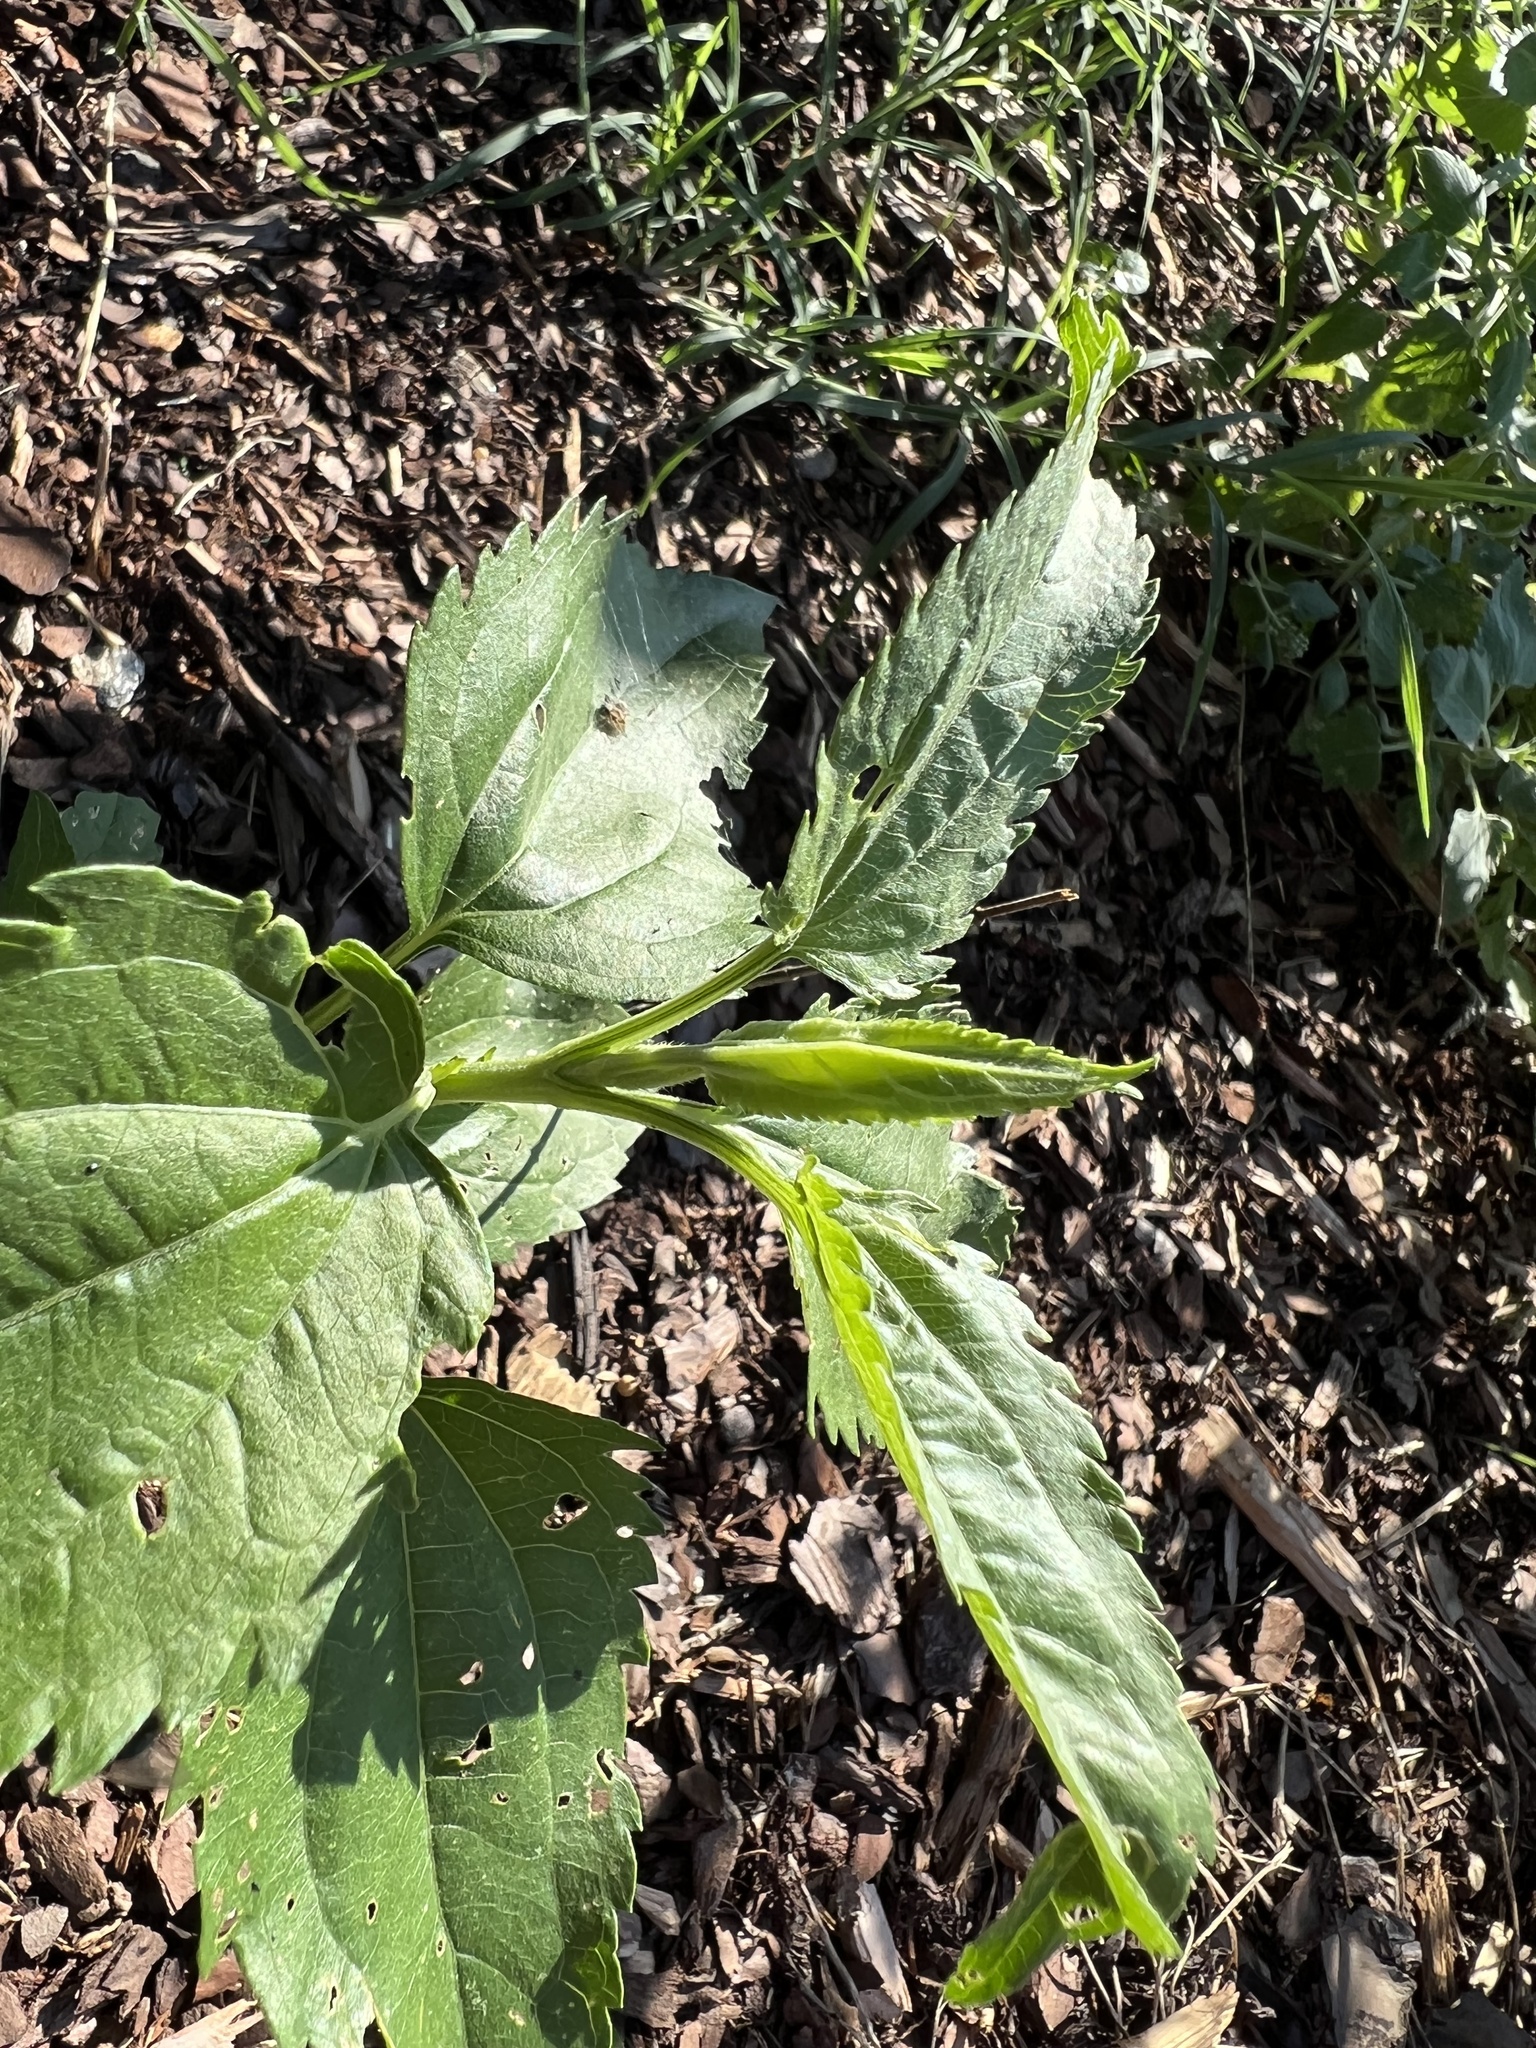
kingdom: Plantae
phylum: Tracheophyta
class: Magnoliopsida
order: Asterales
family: Asteraceae
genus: Eupatorium
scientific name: Eupatorium serotinum
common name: Late boneset
